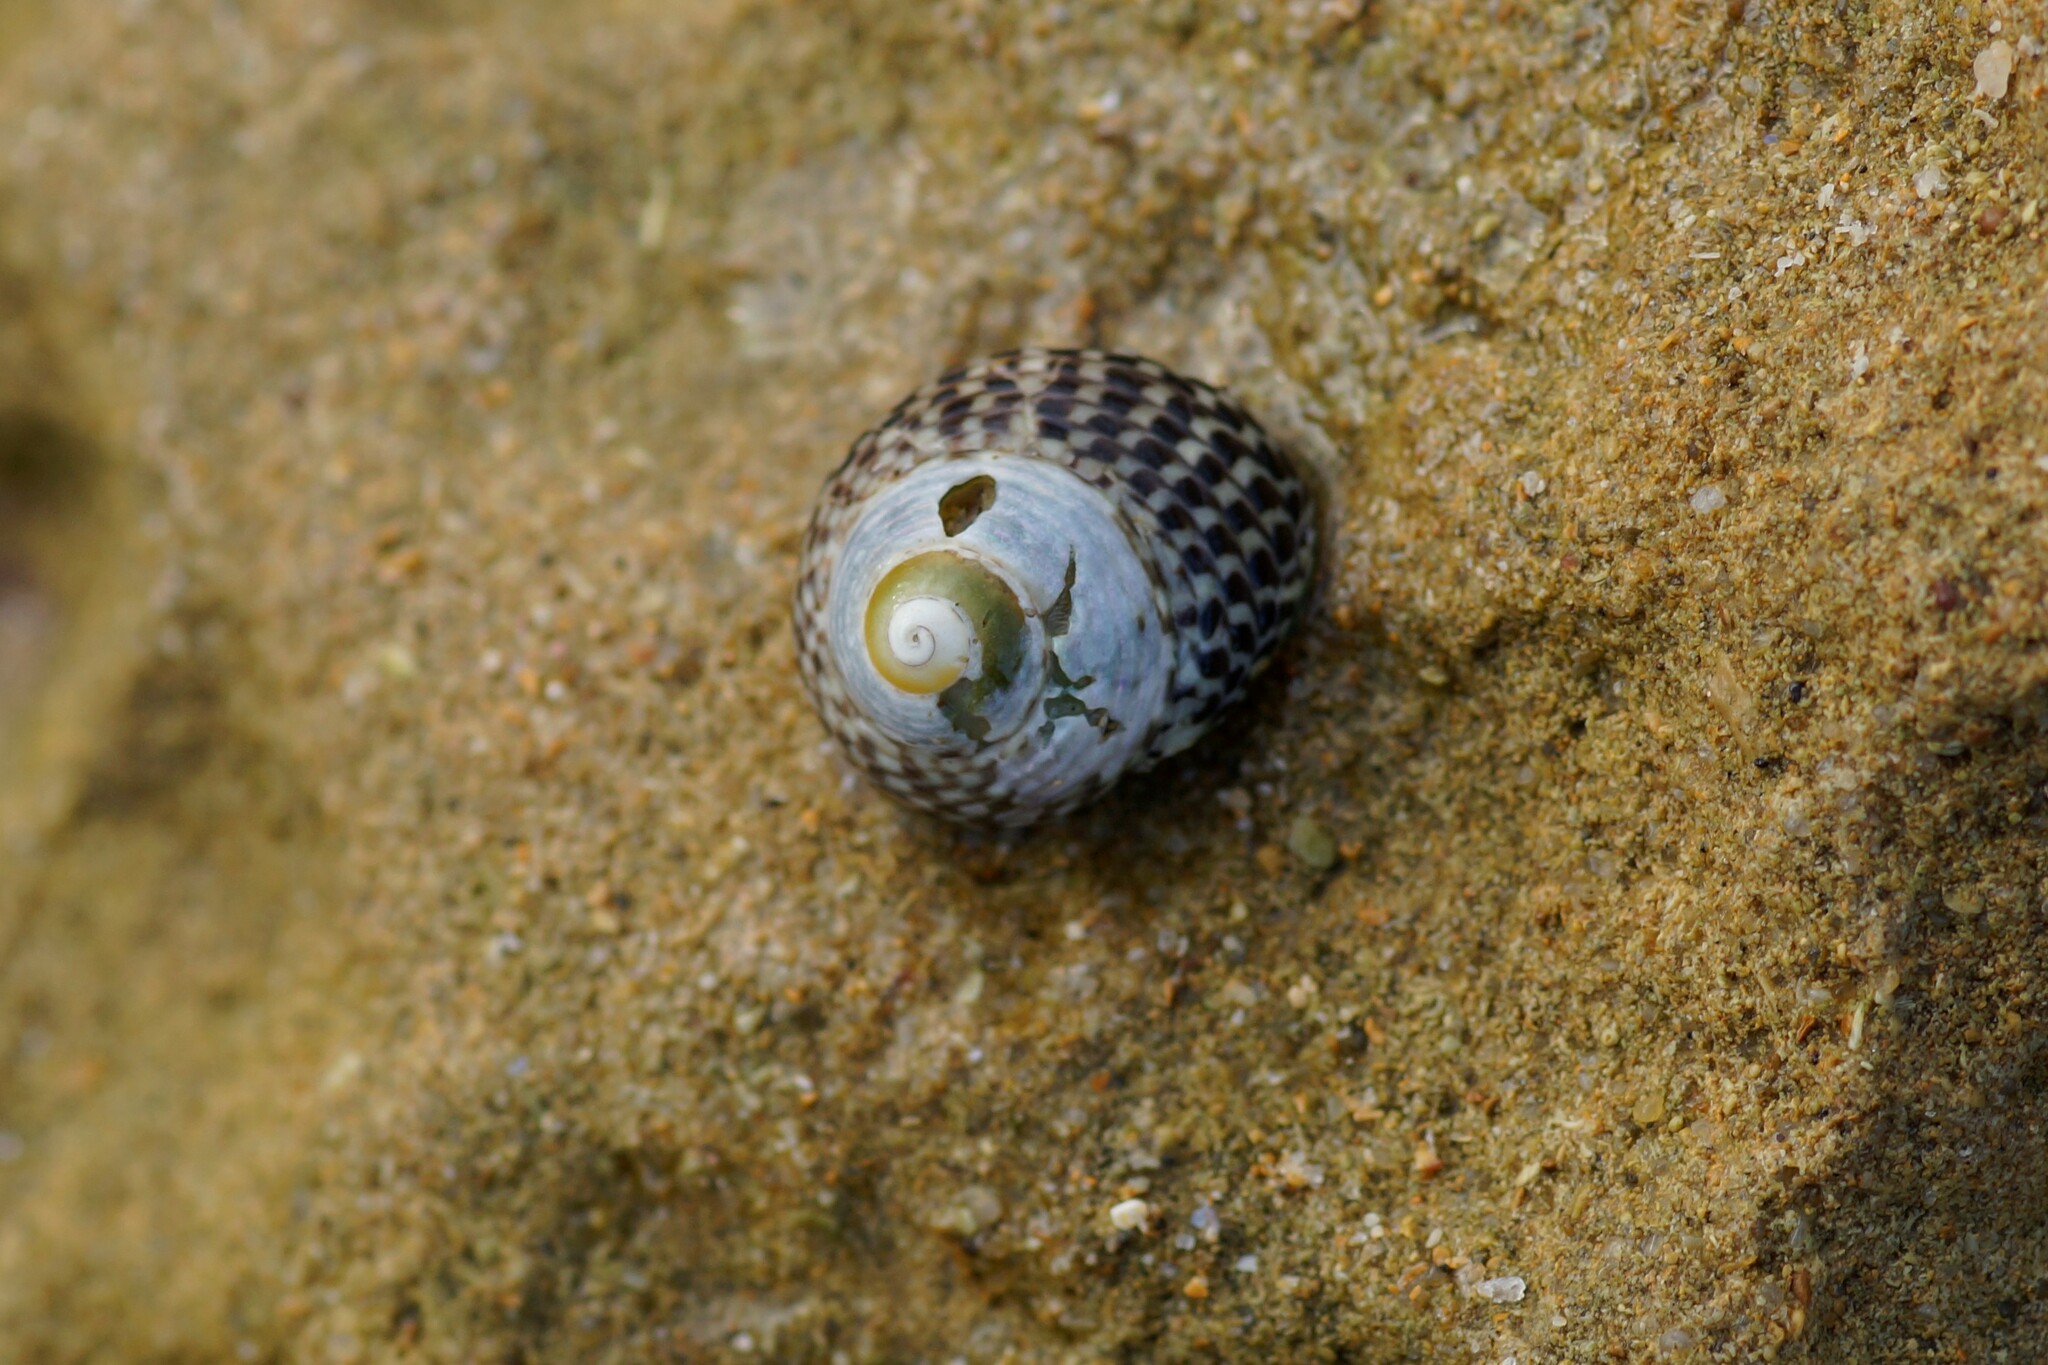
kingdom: Animalia
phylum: Mollusca
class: Gastropoda
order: Trochida
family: Trochidae
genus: Chlorodiloma
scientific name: Chlorodiloma adelaidae
